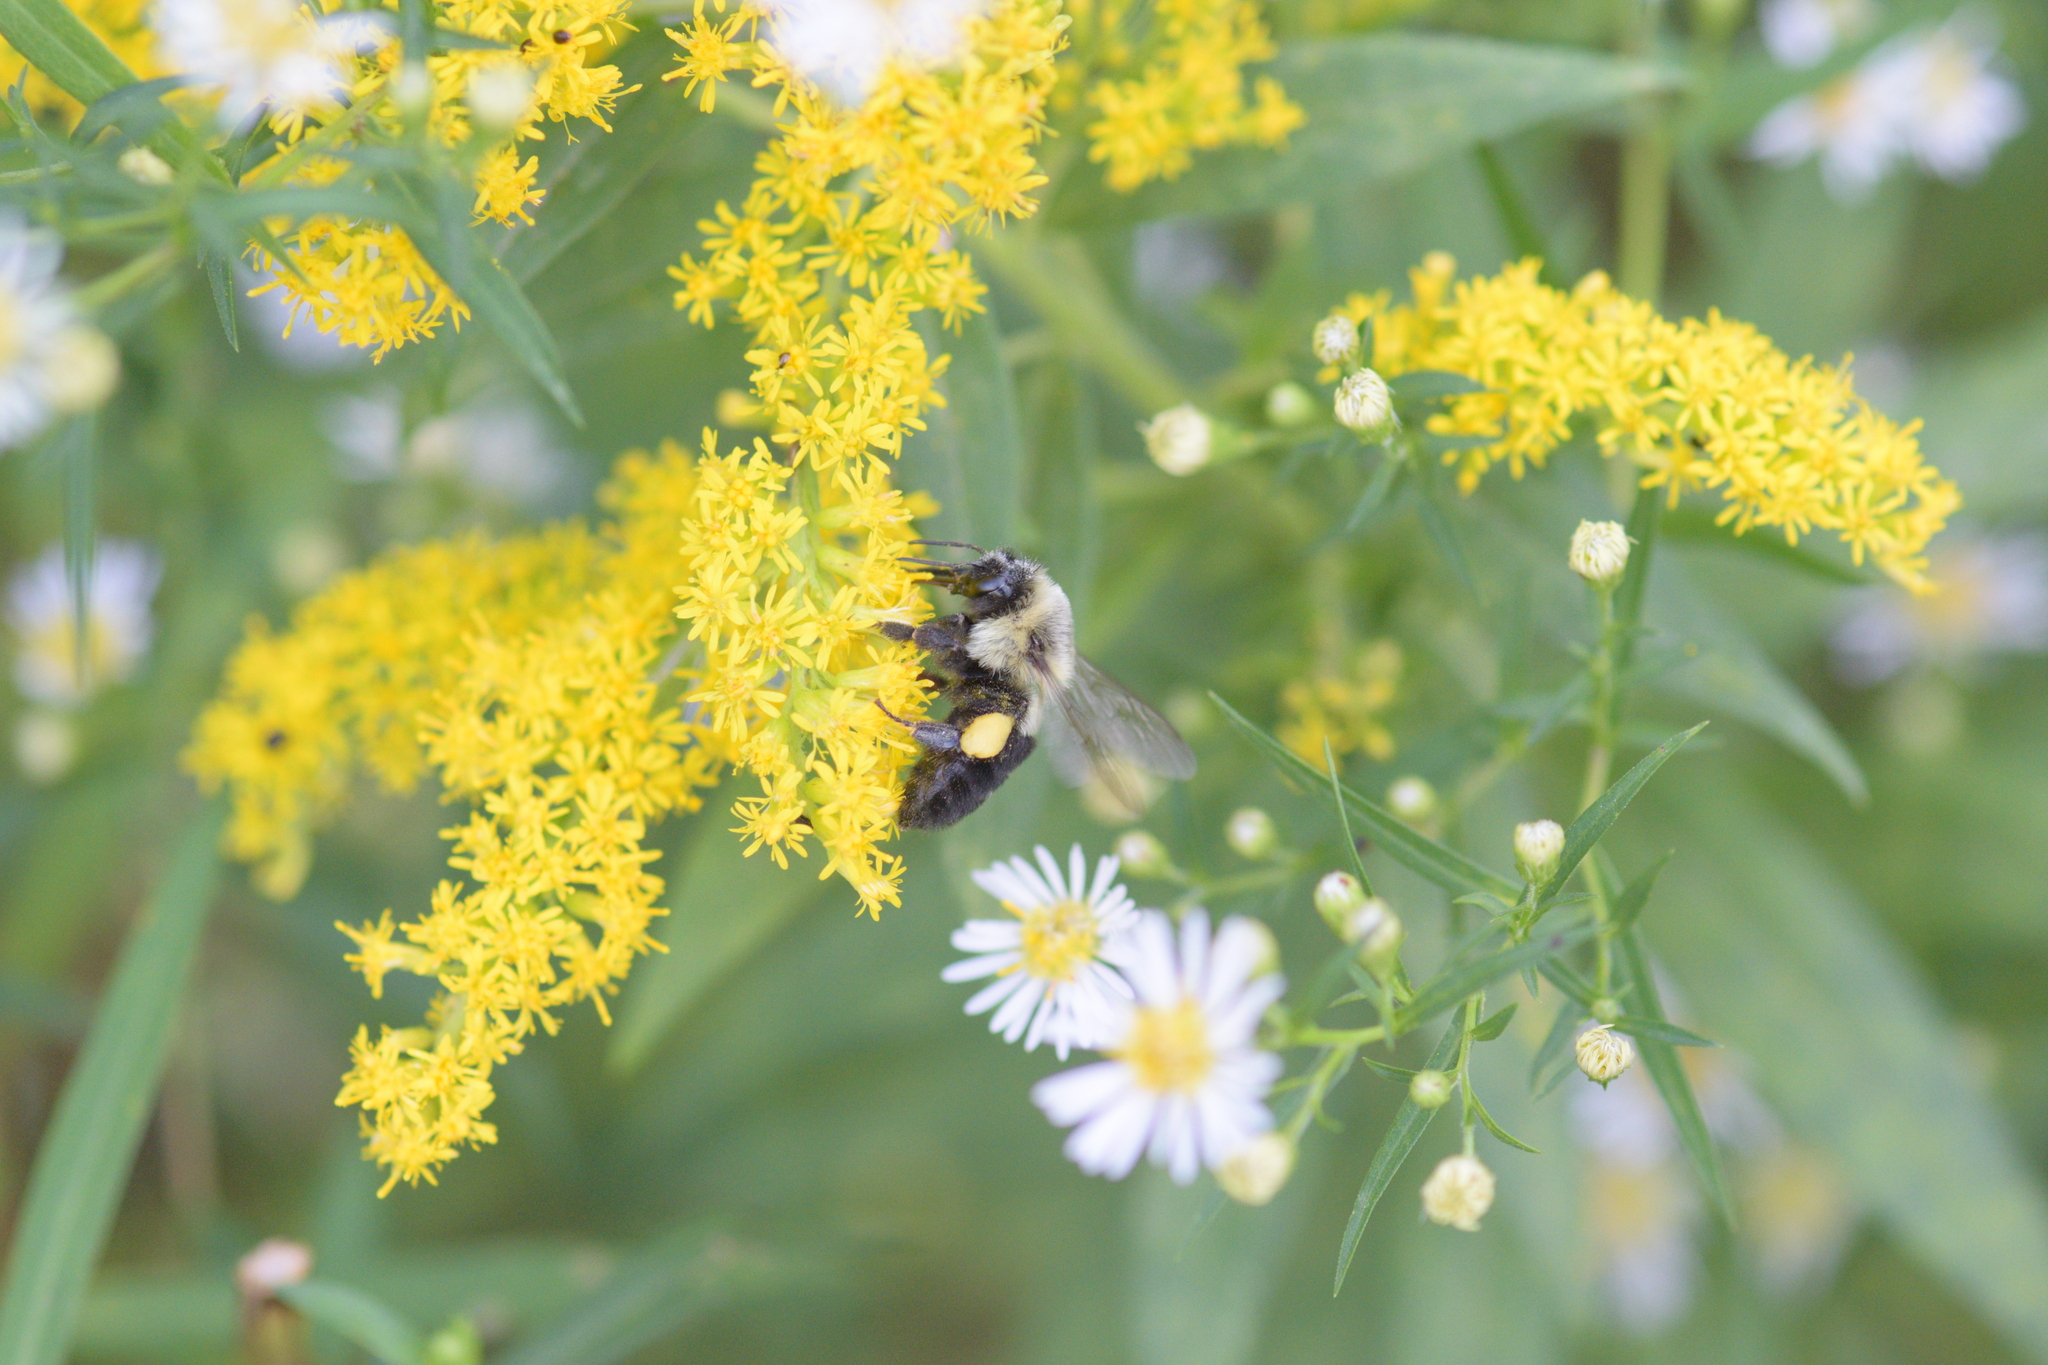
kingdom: Animalia
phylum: Arthropoda
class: Insecta
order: Hymenoptera
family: Apidae
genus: Bombus
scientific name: Bombus impatiens
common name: Common eastern bumble bee
